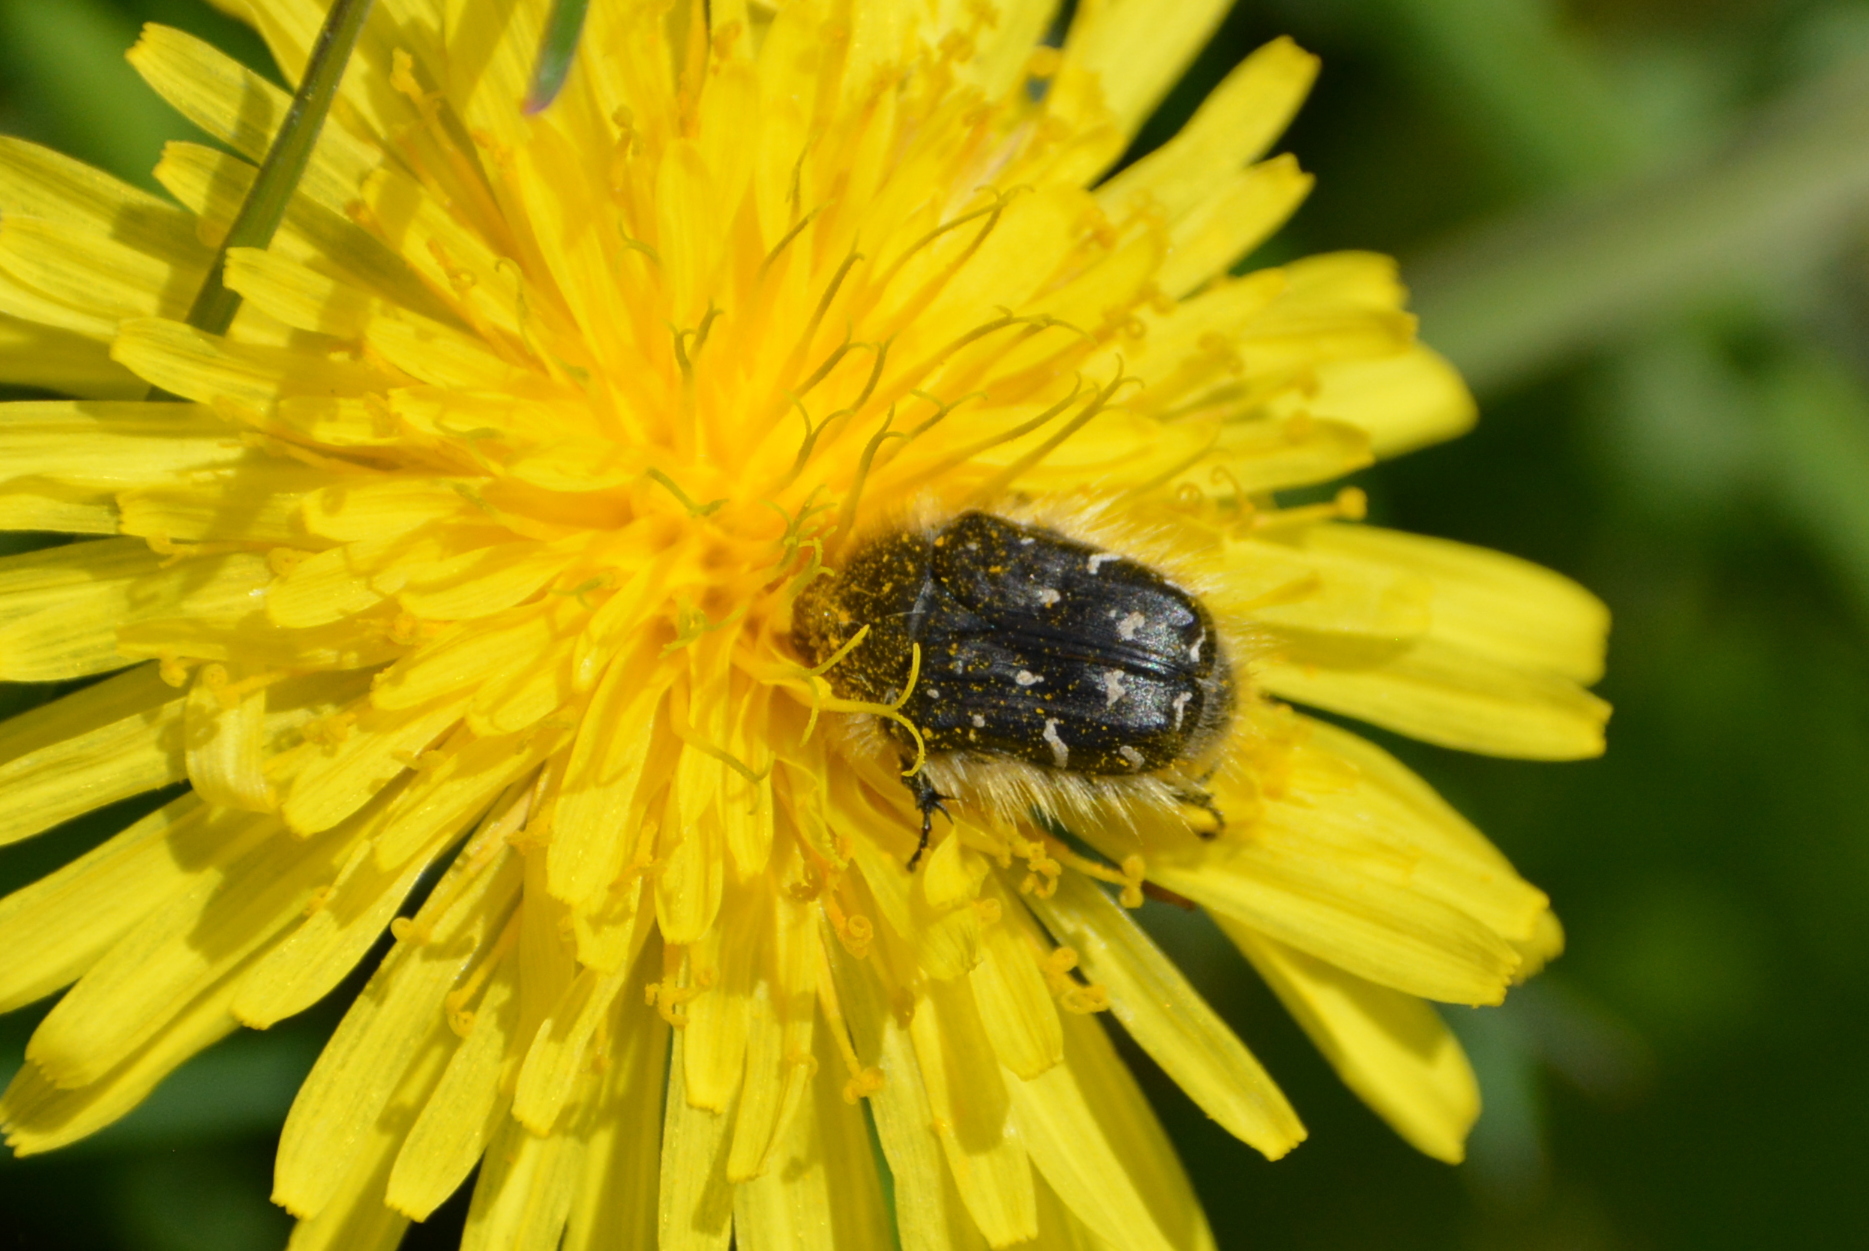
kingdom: Animalia
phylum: Arthropoda
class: Insecta
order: Coleoptera
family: Scarabaeidae
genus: Tropinota
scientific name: Tropinota hirta
